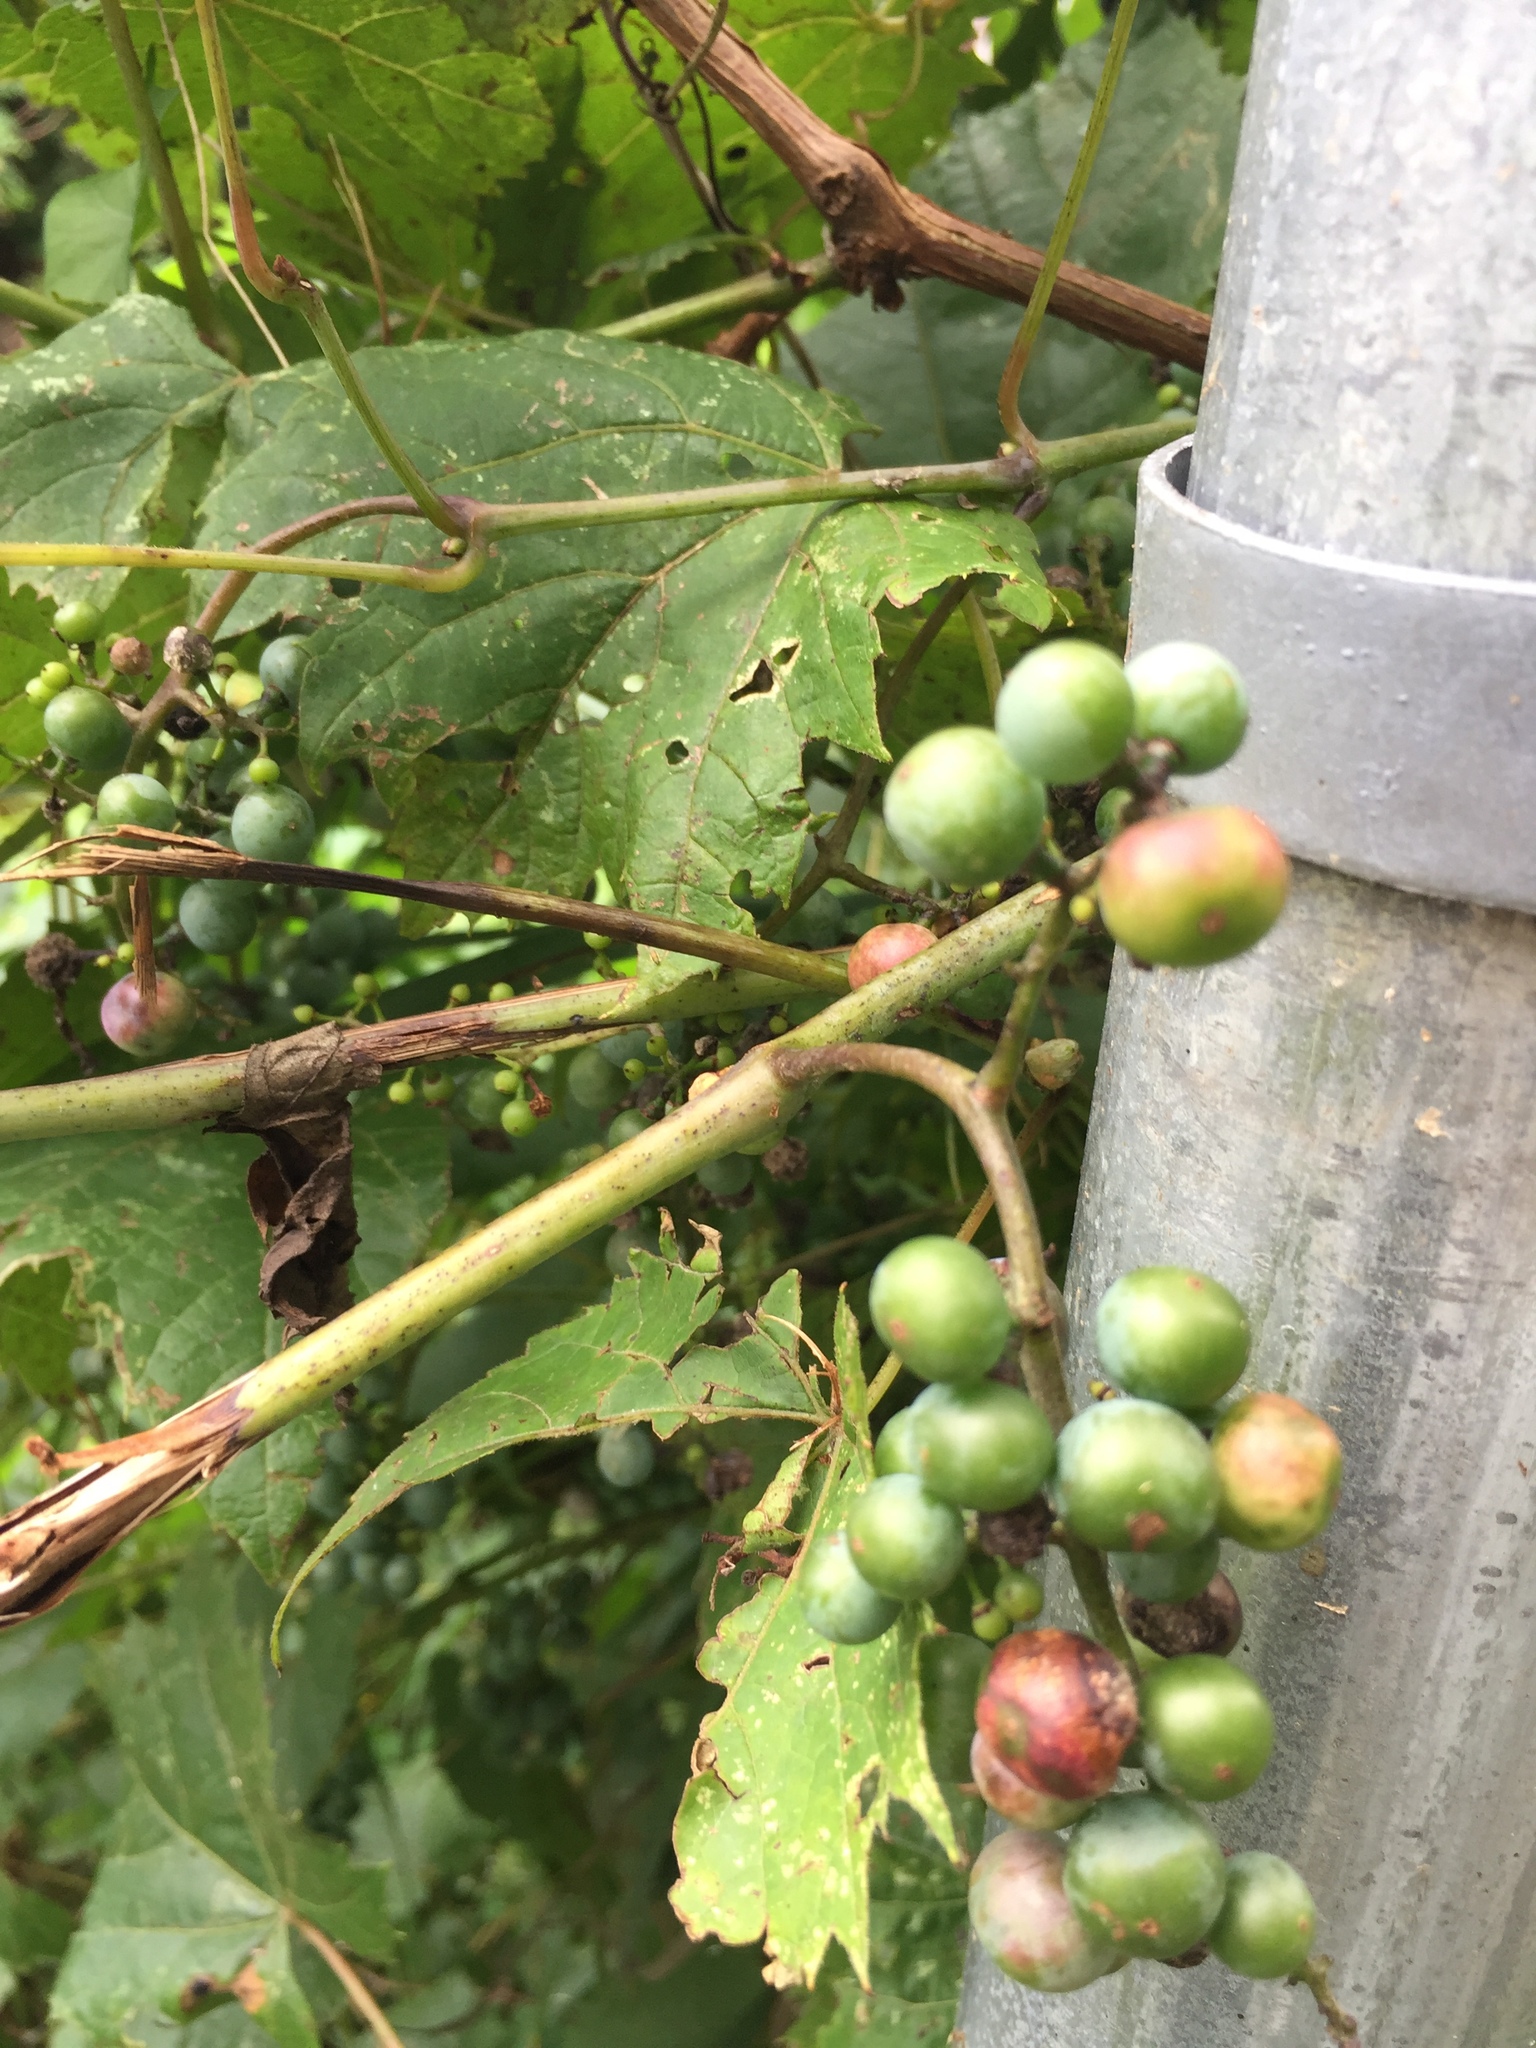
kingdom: Plantae
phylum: Tracheophyta
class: Magnoliopsida
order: Vitales
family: Vitaceae
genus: Vitis
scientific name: Vitis riparia
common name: Frost grape
